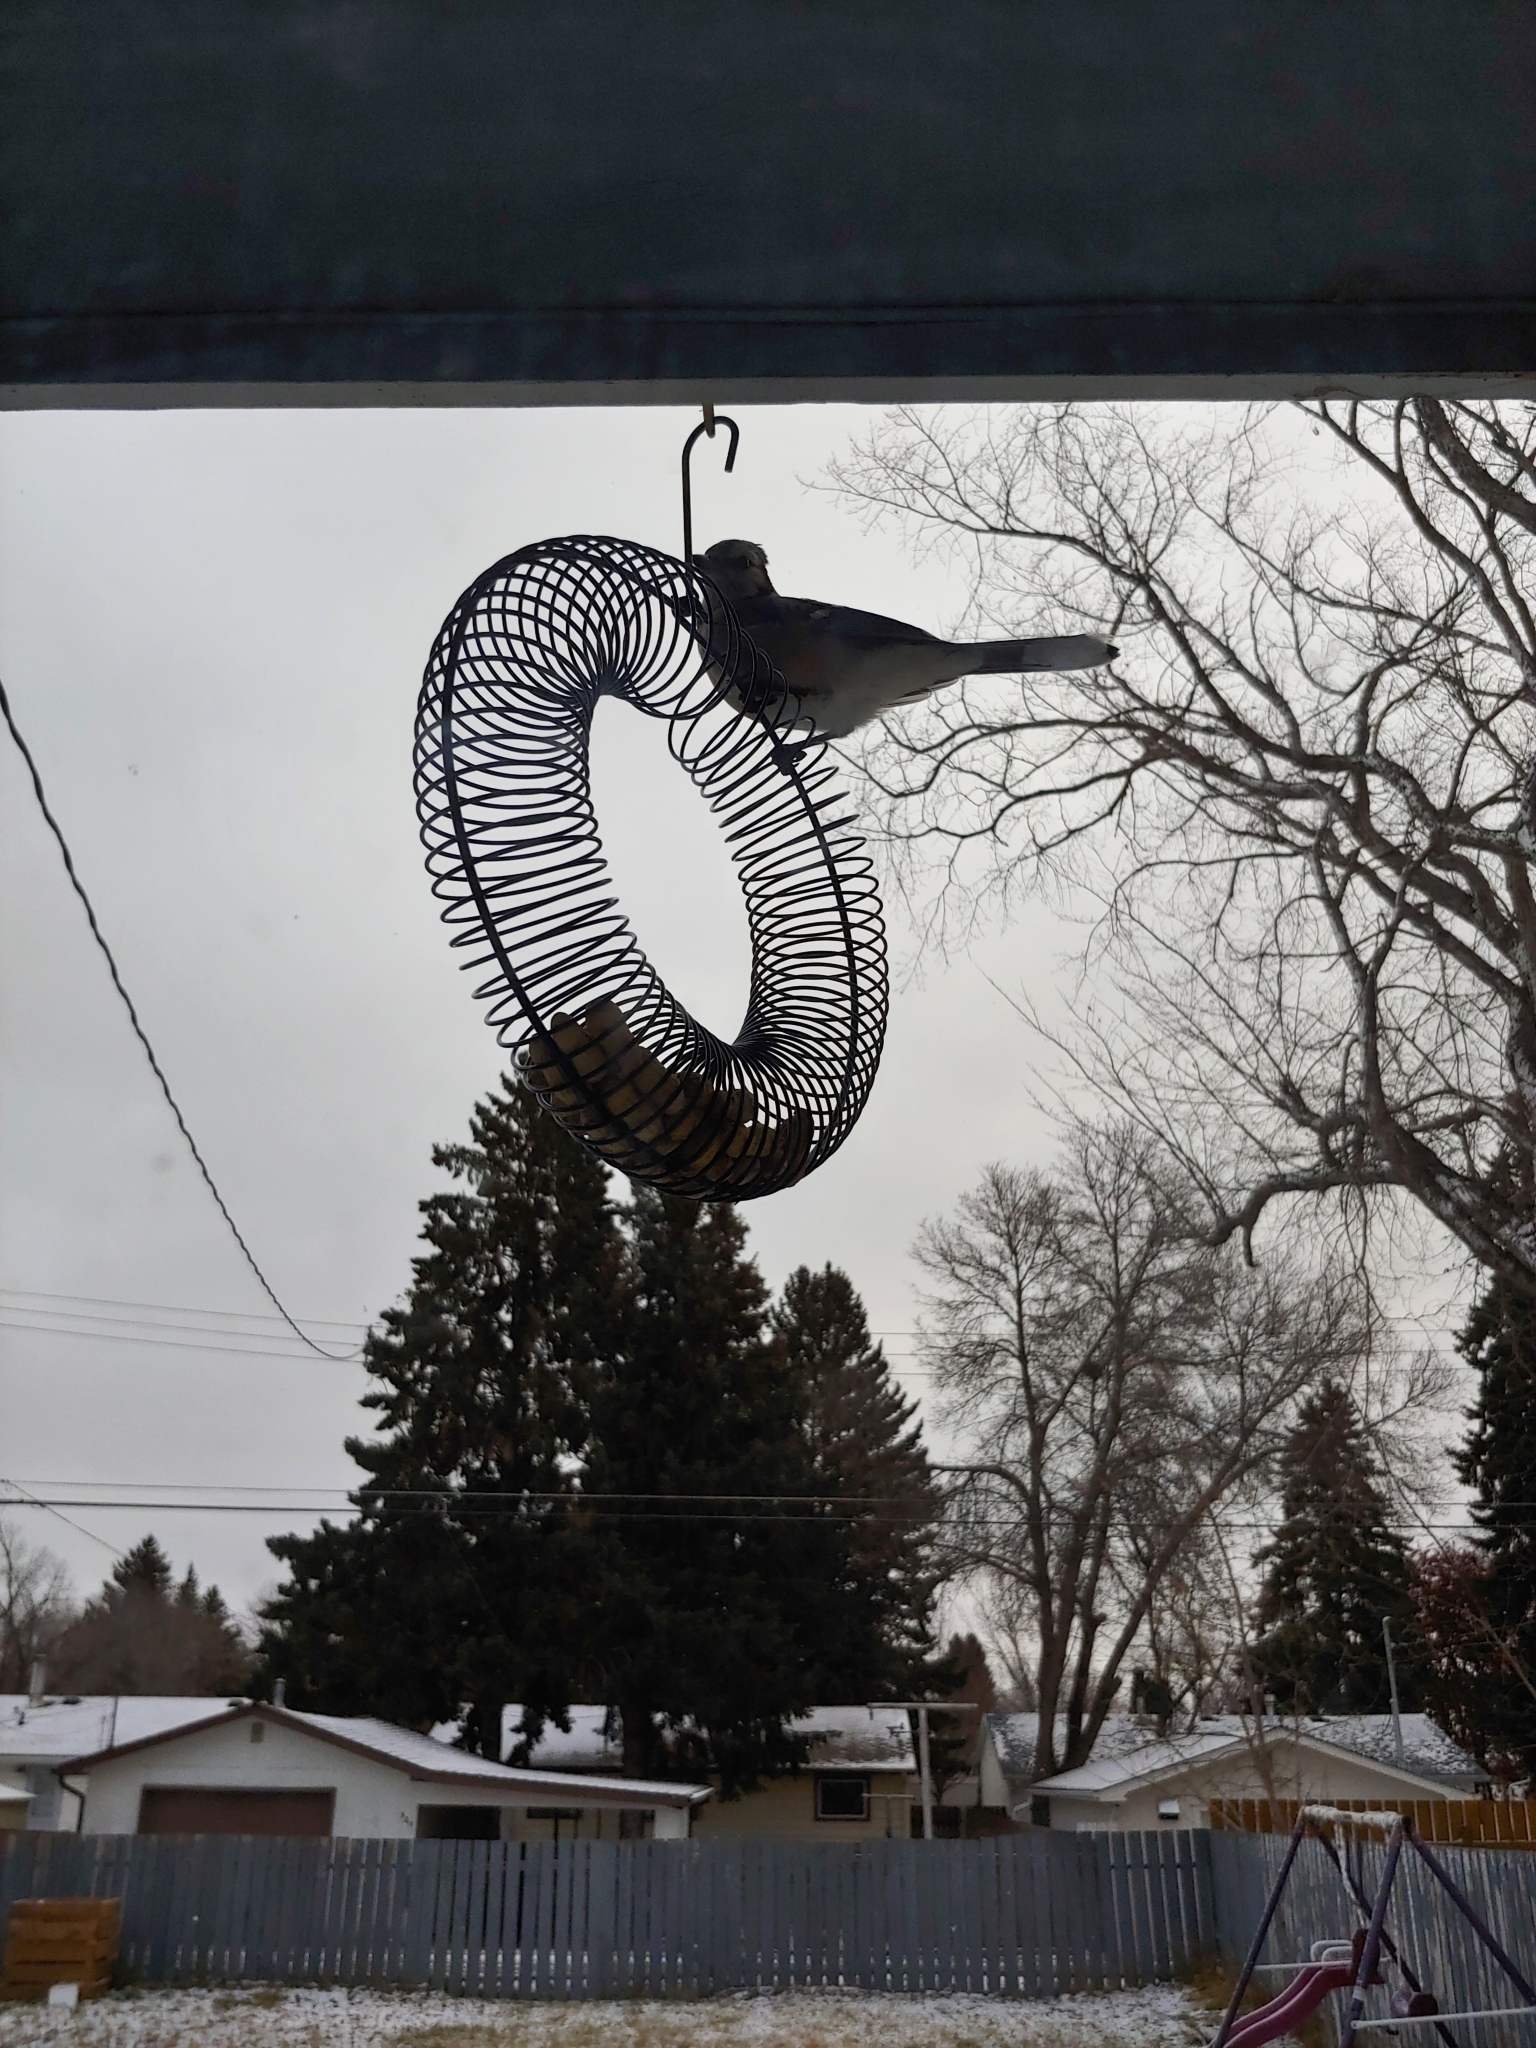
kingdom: Animalia
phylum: Chordata
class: Aves
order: Passeriformes
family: Corvidae
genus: Cyanocitta
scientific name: Cyanocitta cristata
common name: Blue jay
